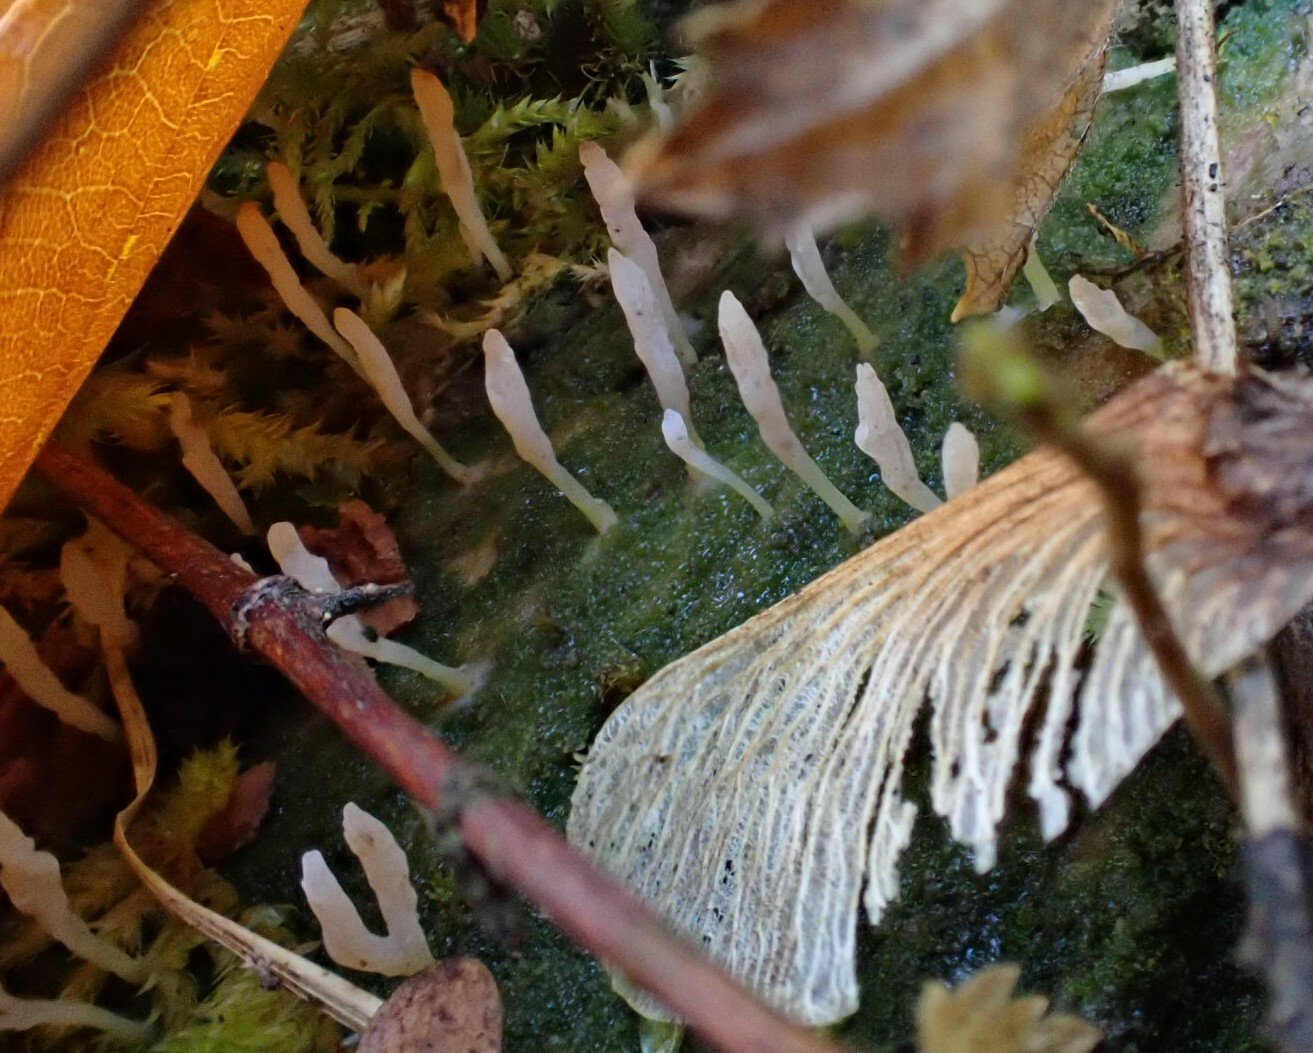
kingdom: Fungi
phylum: Basidiomycota
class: Agaricomycetes
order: Cantharellales
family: Hydnaceae
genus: Multiclavula
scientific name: Multiclavula mucida
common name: White green-algae coral
